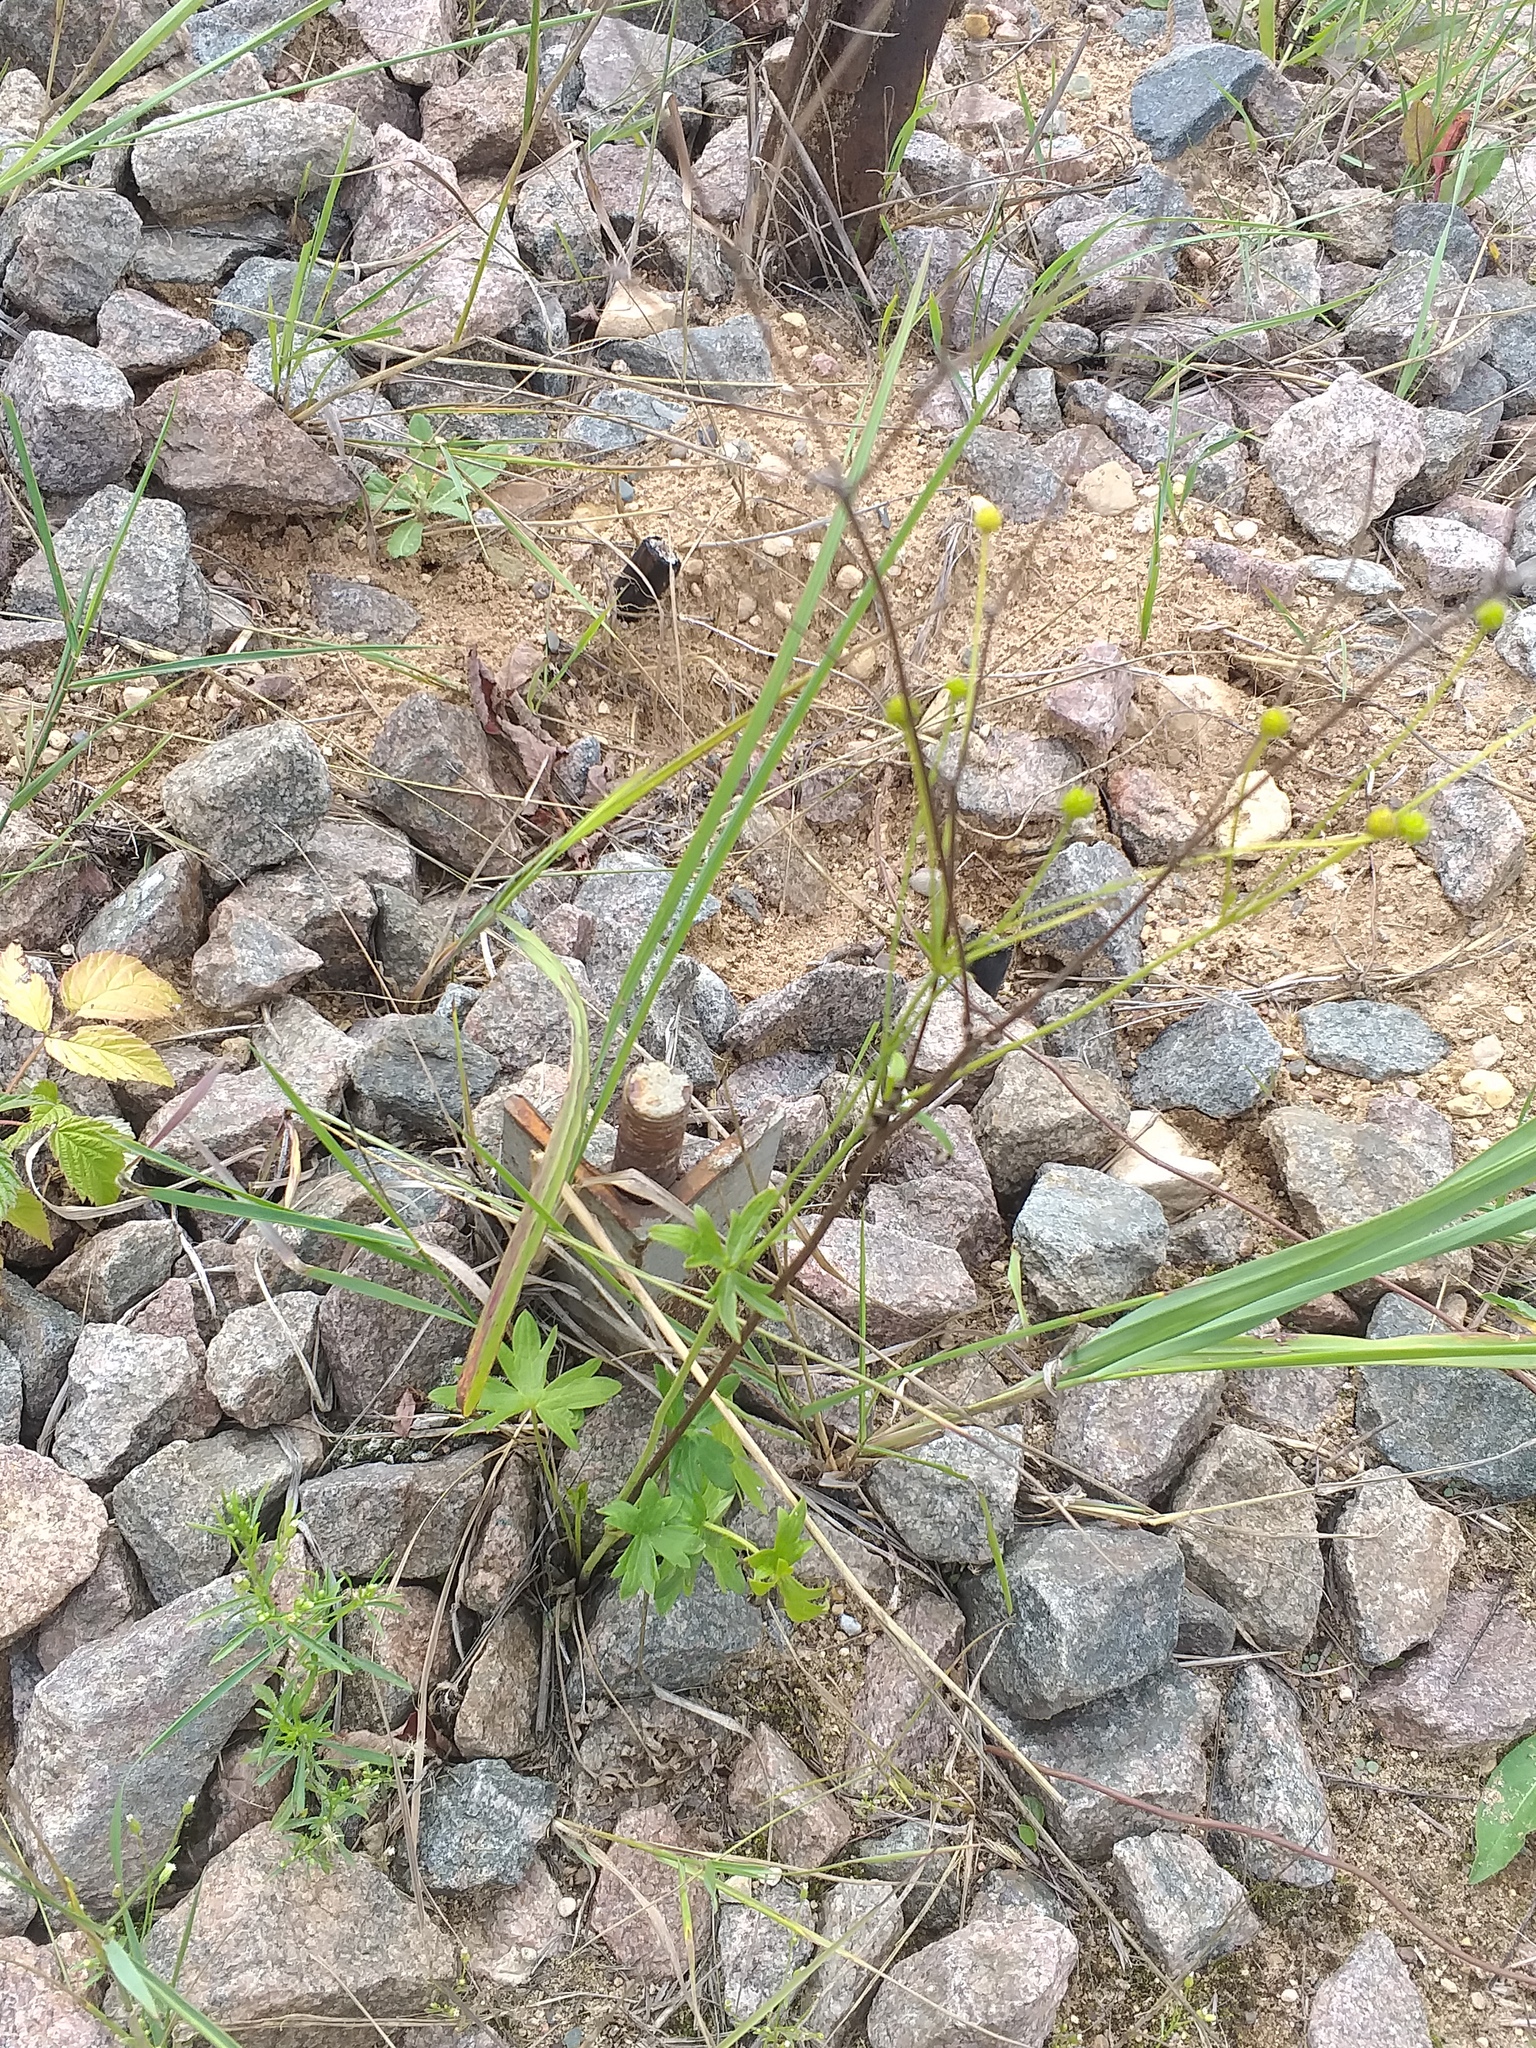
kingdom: Plantae
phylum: Tracheophyta
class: Magnoliopsida
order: Ranunculales
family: Ranunculaceae
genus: Ranunculus
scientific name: Ranunculus acris
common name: Meadow buttercup
